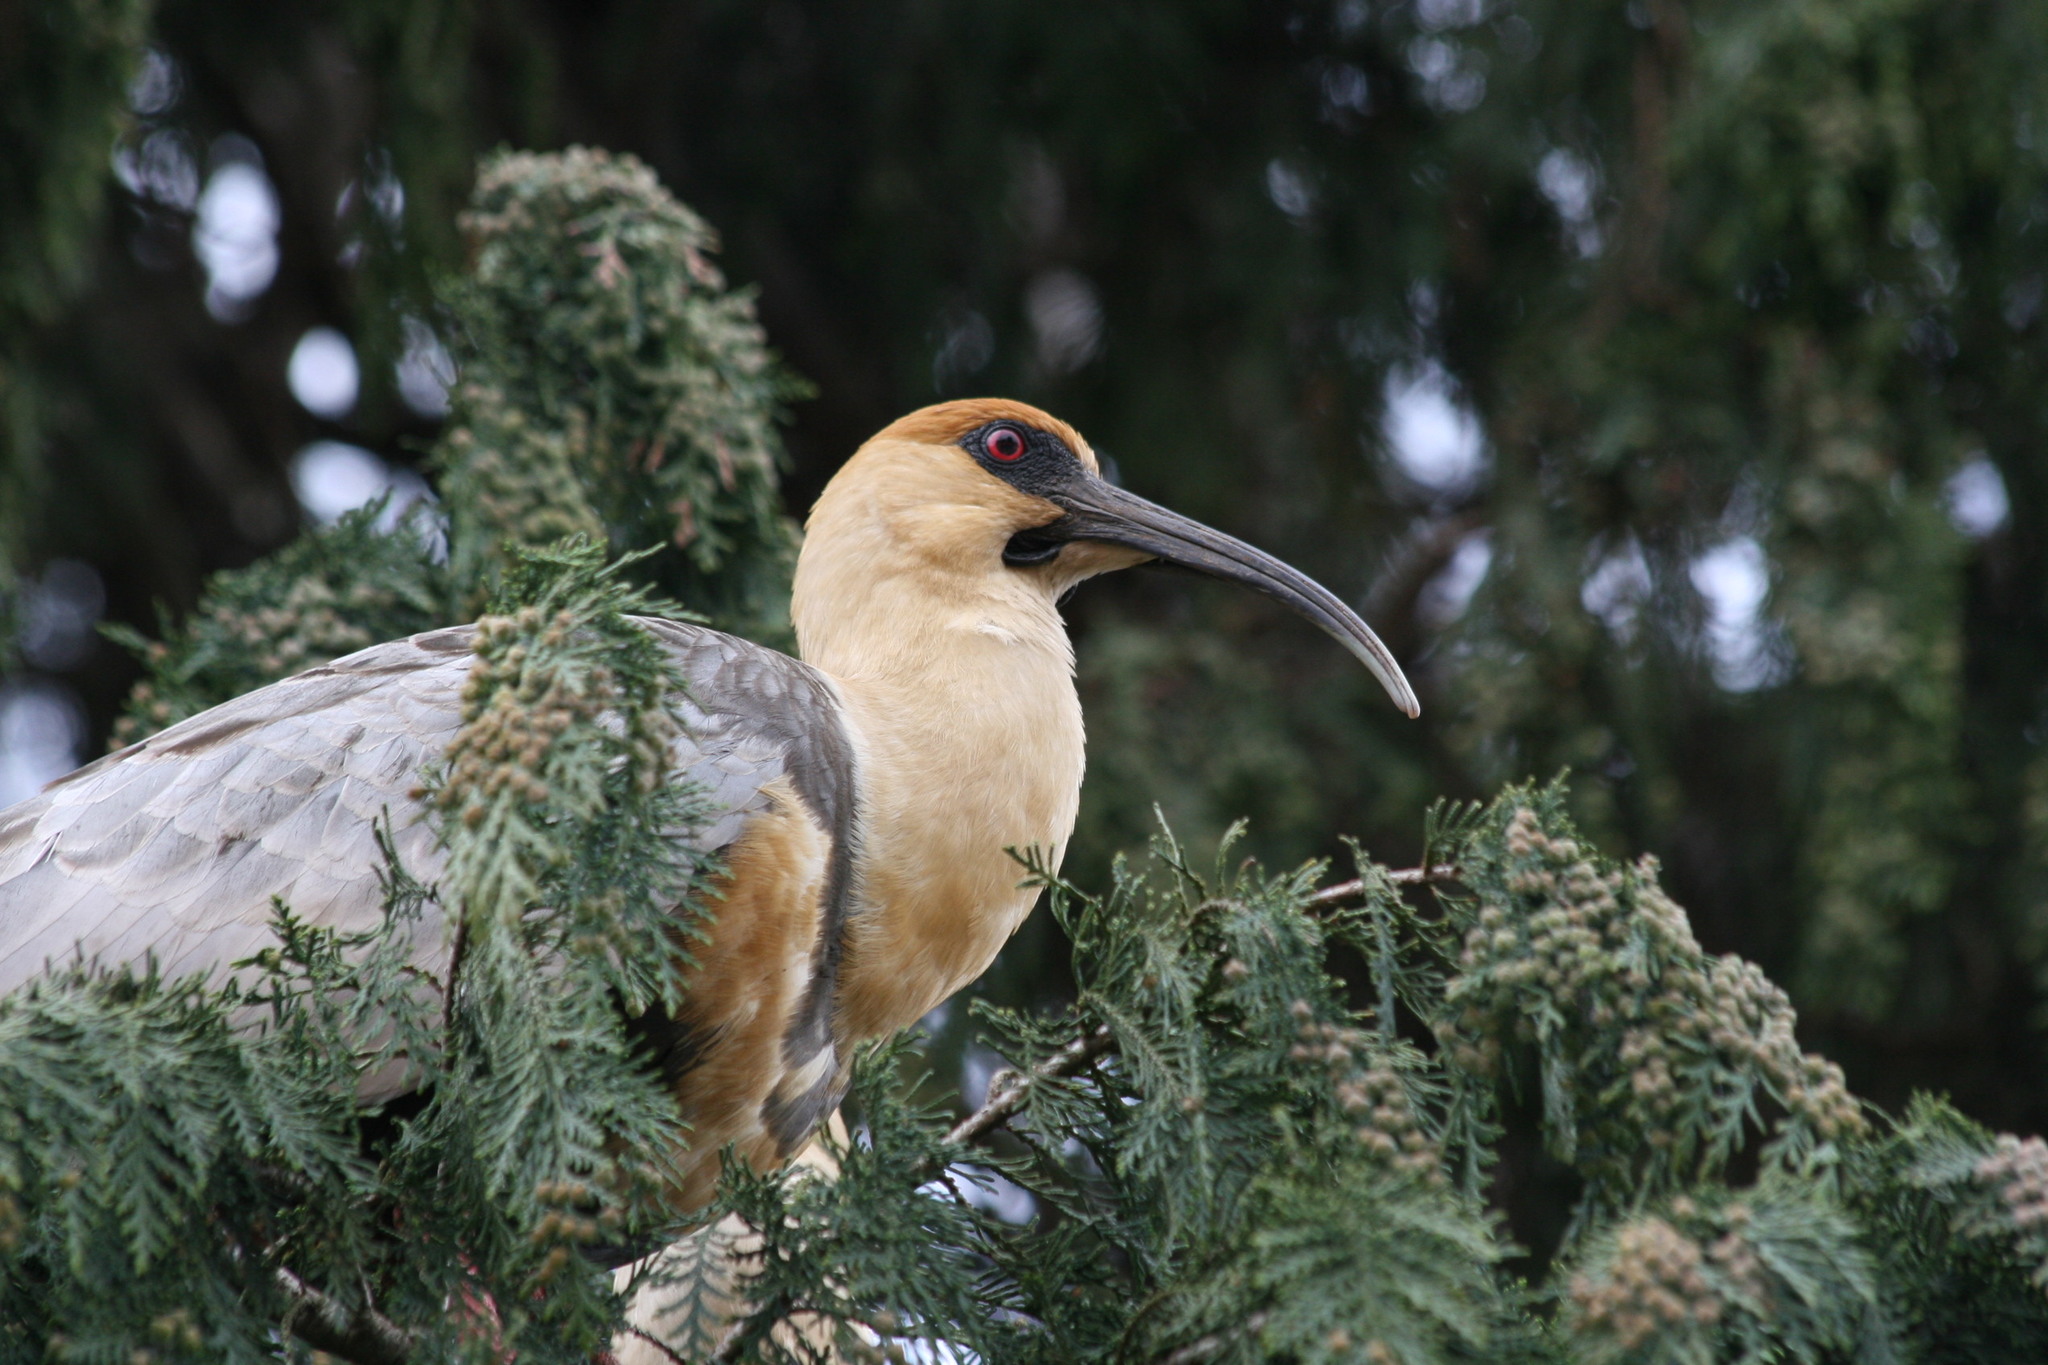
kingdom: Animalia
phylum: Chordata
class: Aves
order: Pelecaniformes
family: Threskiornithidae
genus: Theristicus
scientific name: Theristicus melanopis
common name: Black-faced ibis
